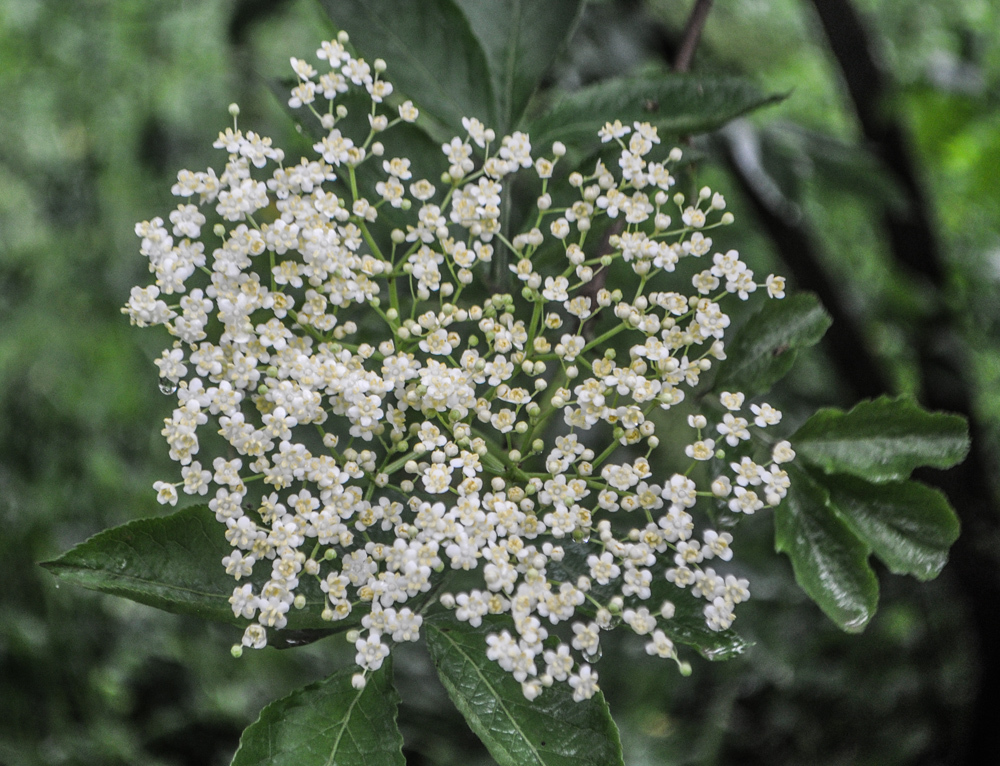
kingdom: Plantae
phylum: Tracheophyta
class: Magnoliopsida
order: Dipsacales
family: Viburnaceae
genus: Sambucus
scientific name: Sambucus nigra
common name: Elder
